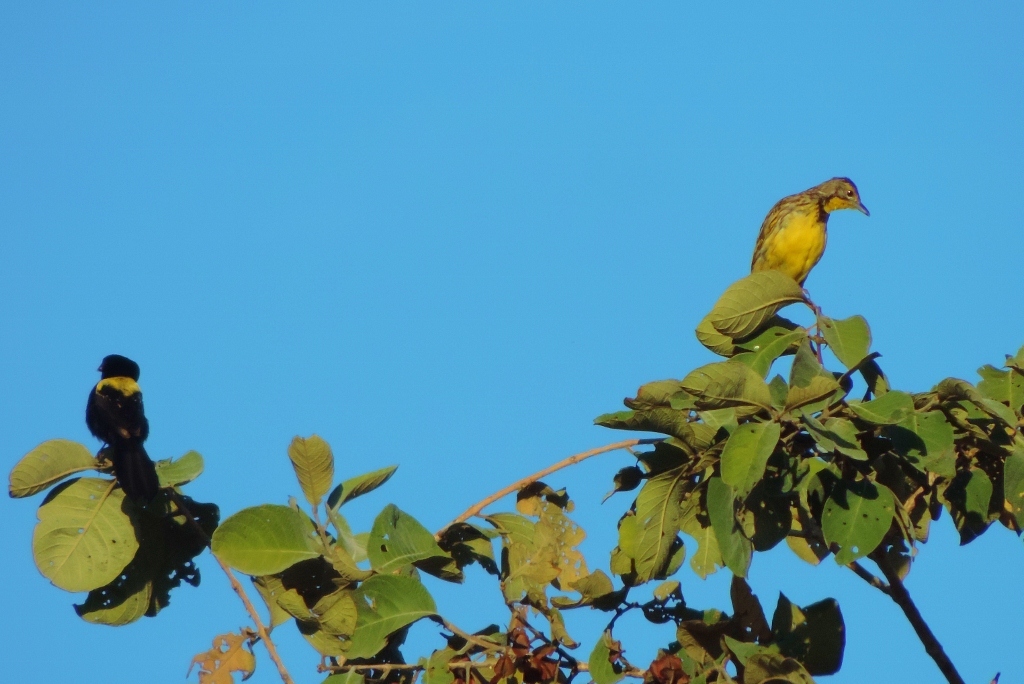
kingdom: Animalia
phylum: Chordata
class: Aves
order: Passeriformes
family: Ploceidae
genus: Euplectes
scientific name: Euplectes macroura
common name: Yellow-mantled widowbird
